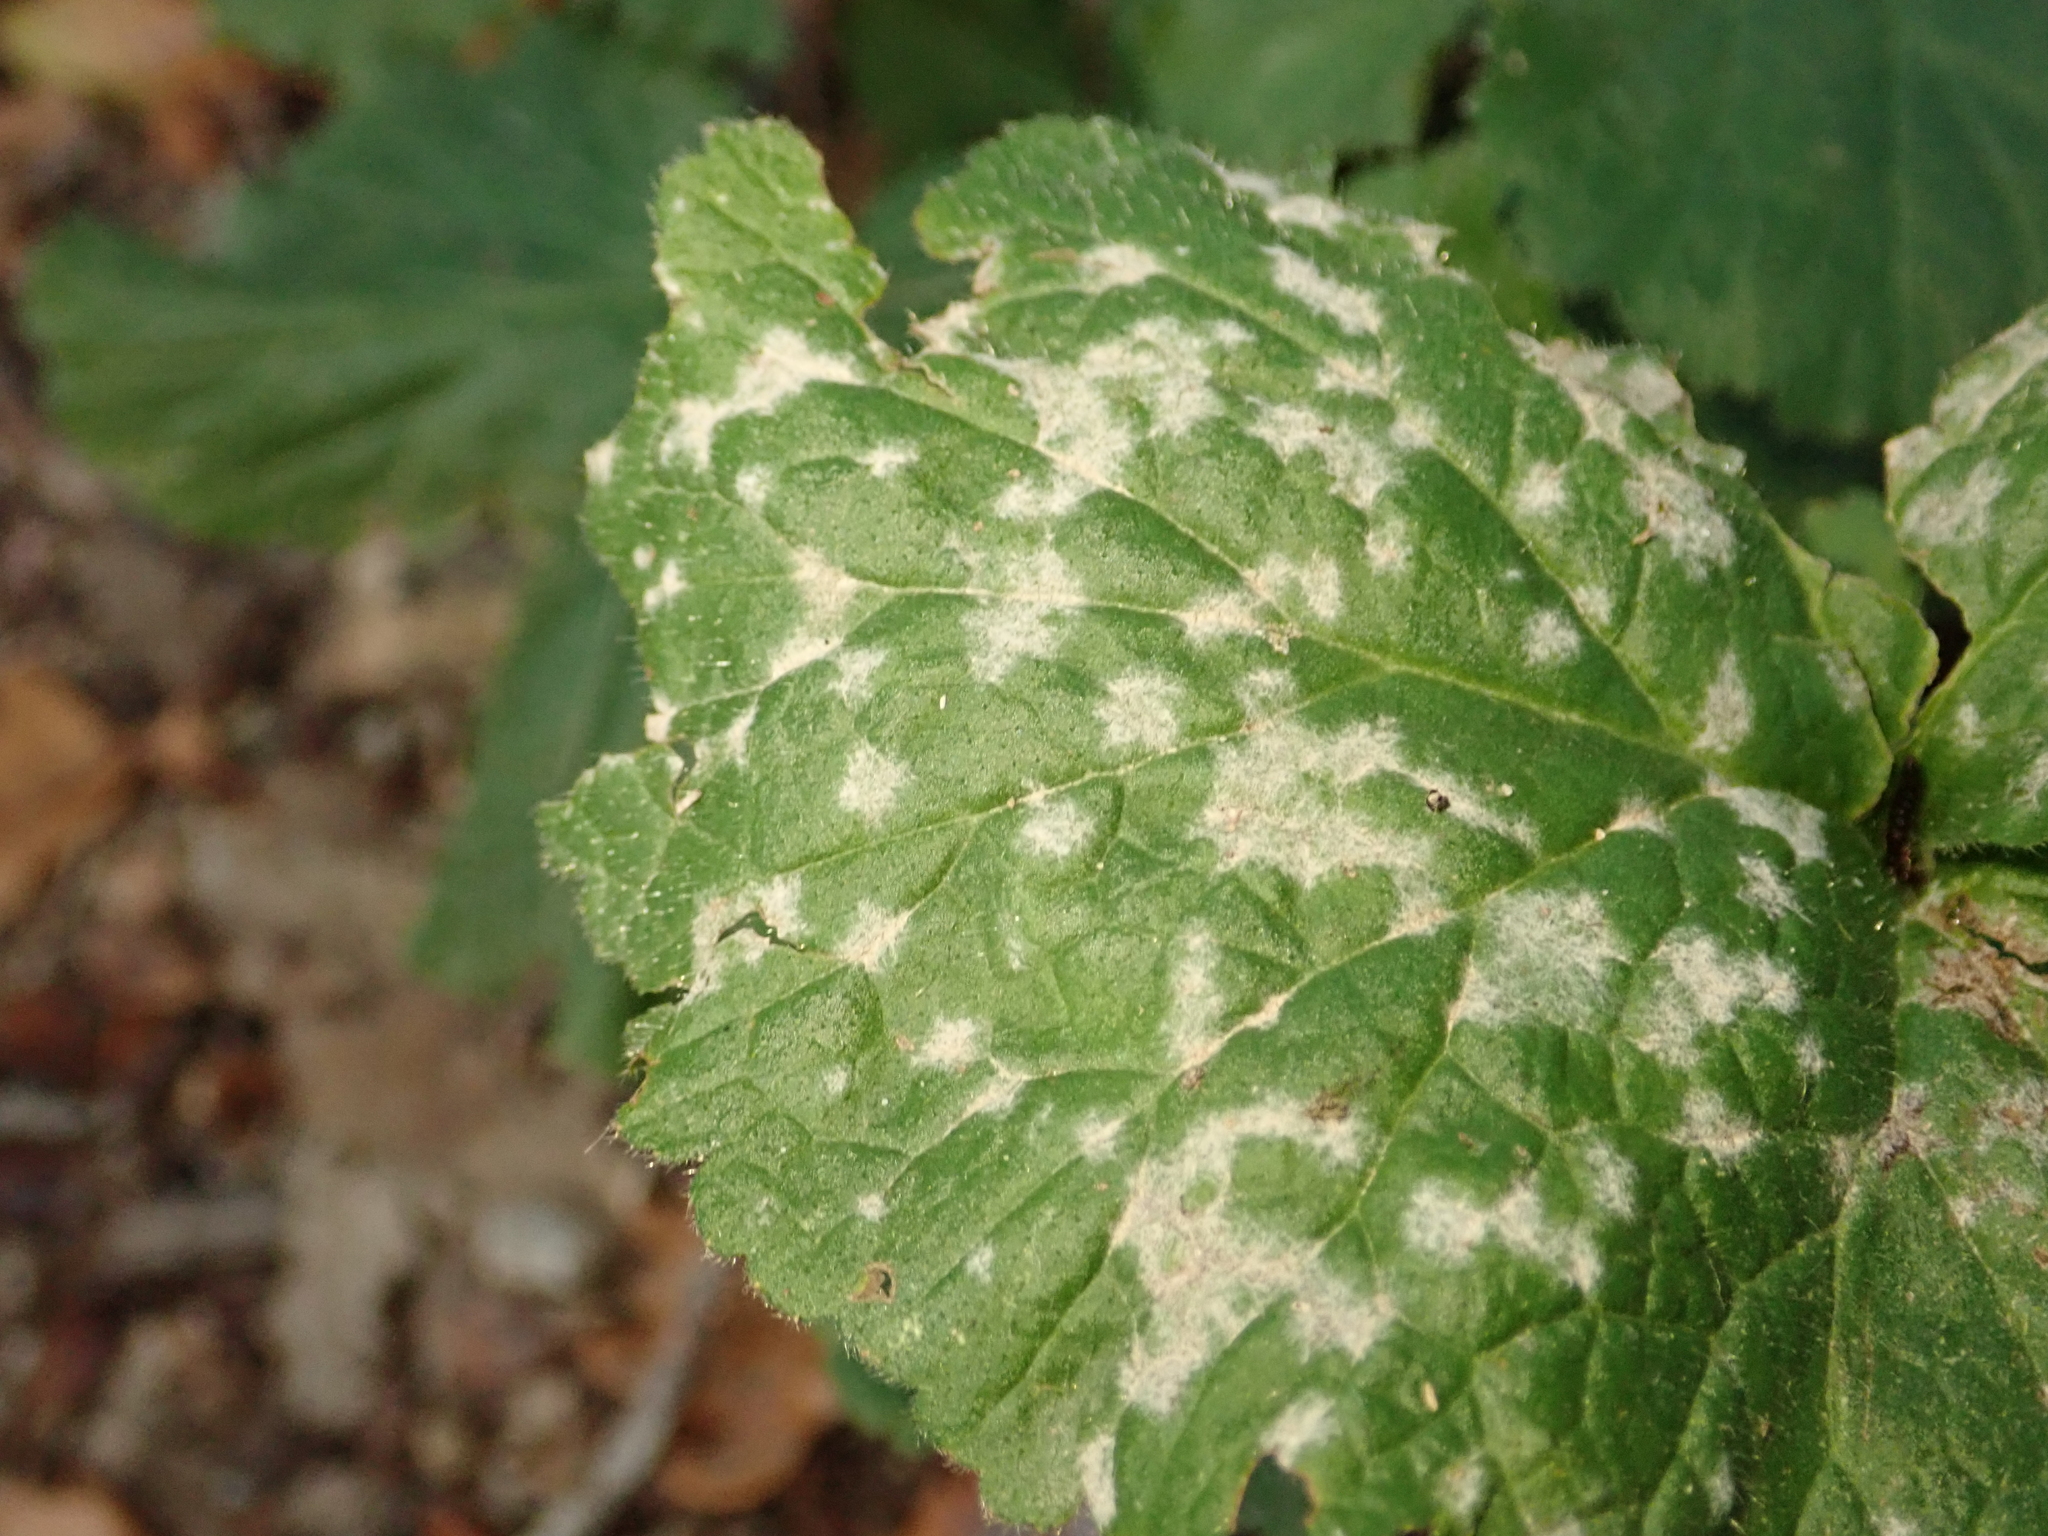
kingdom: Fungi
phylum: Ascomycota
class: Leotiomycetes
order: Helotiales
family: Erysiphaceae
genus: Podosphaera
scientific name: Podosphaera aphanis
